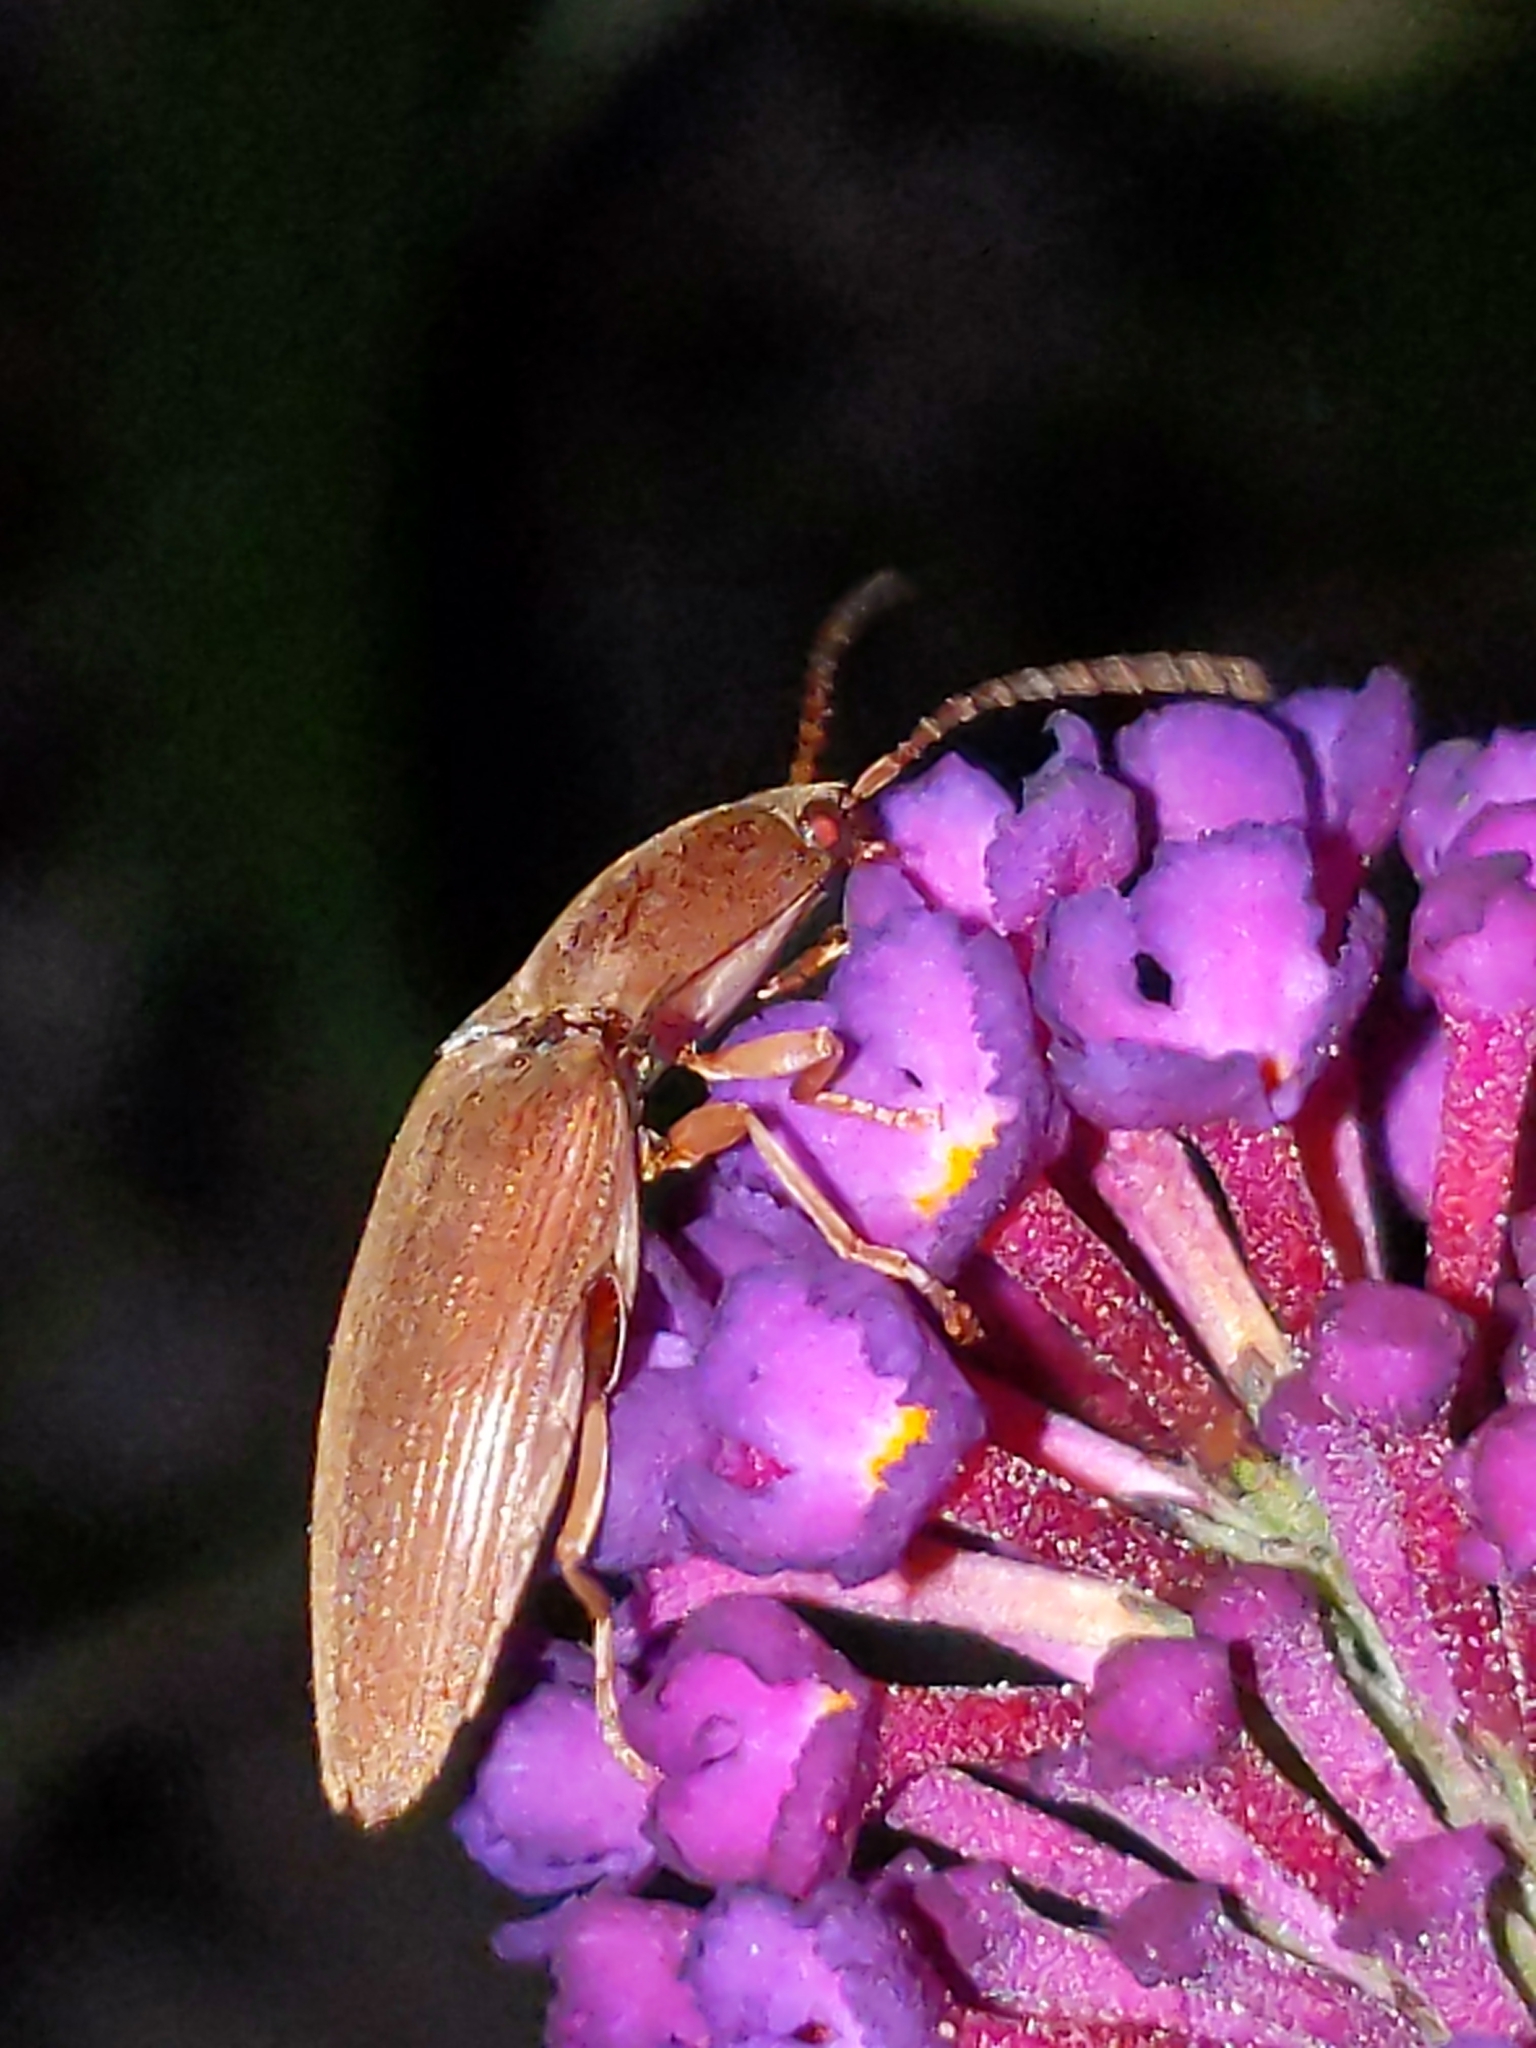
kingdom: Animalia
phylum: Arthropoda
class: Insecta
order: Coleoptera
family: Elateridae
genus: Monocrepidius
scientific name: Monocrepidius lividus
